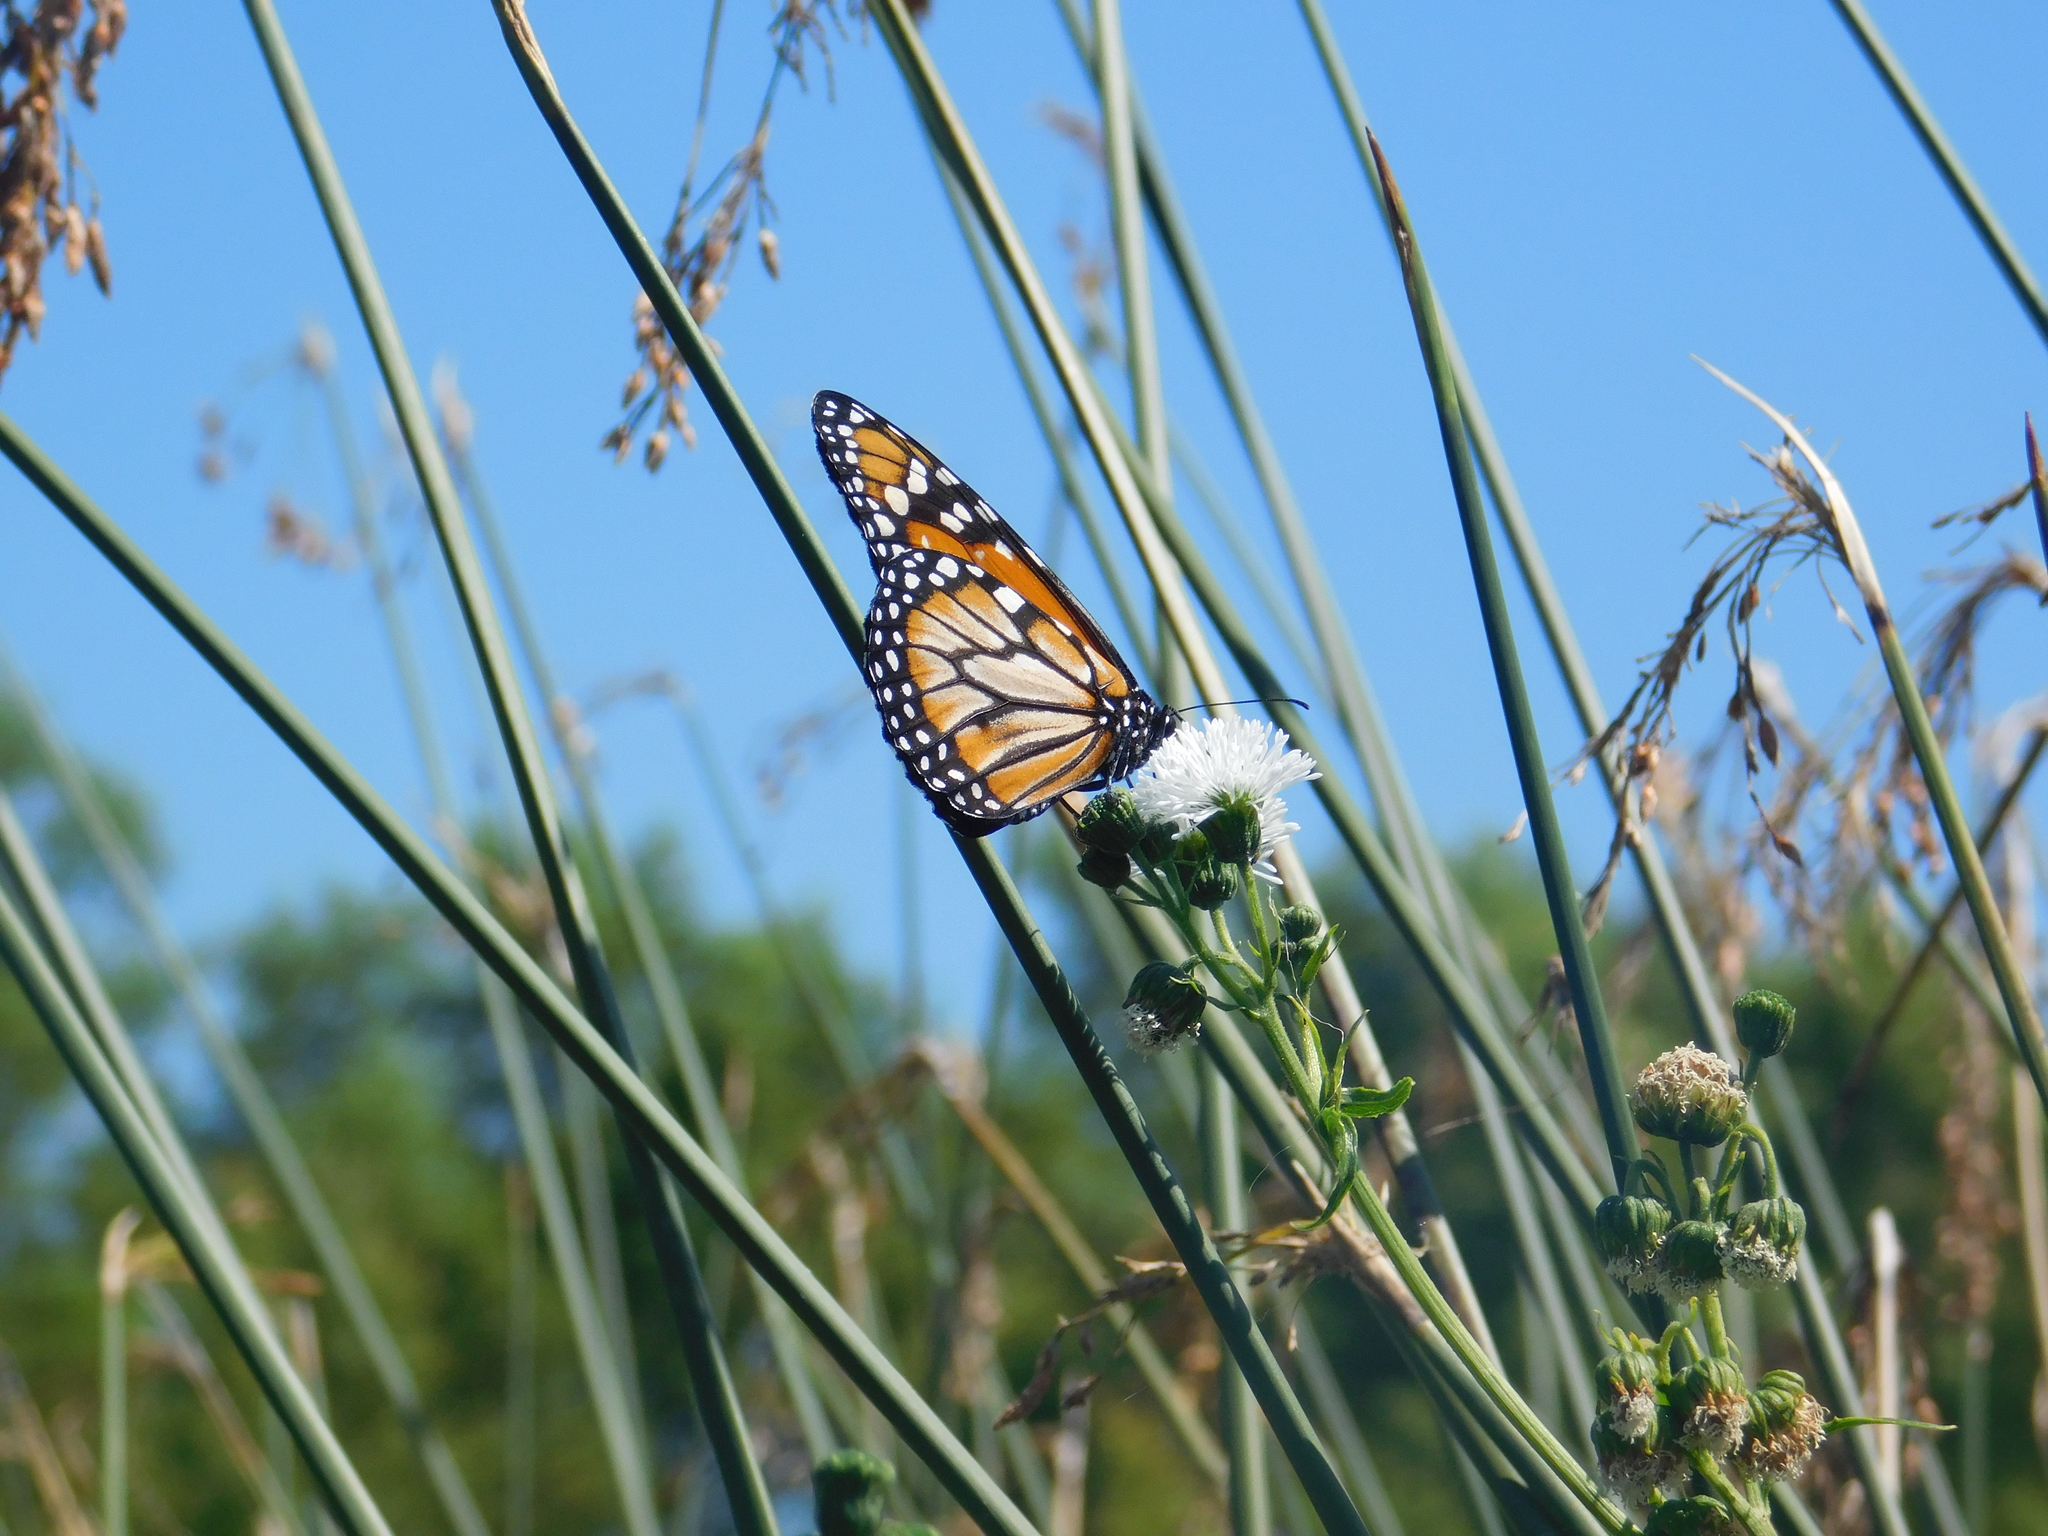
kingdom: Animalia
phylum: Arthropoda
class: Insecta
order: Lepidoptera
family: Nymphalidae
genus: Danaus
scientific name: Danaus erippus
